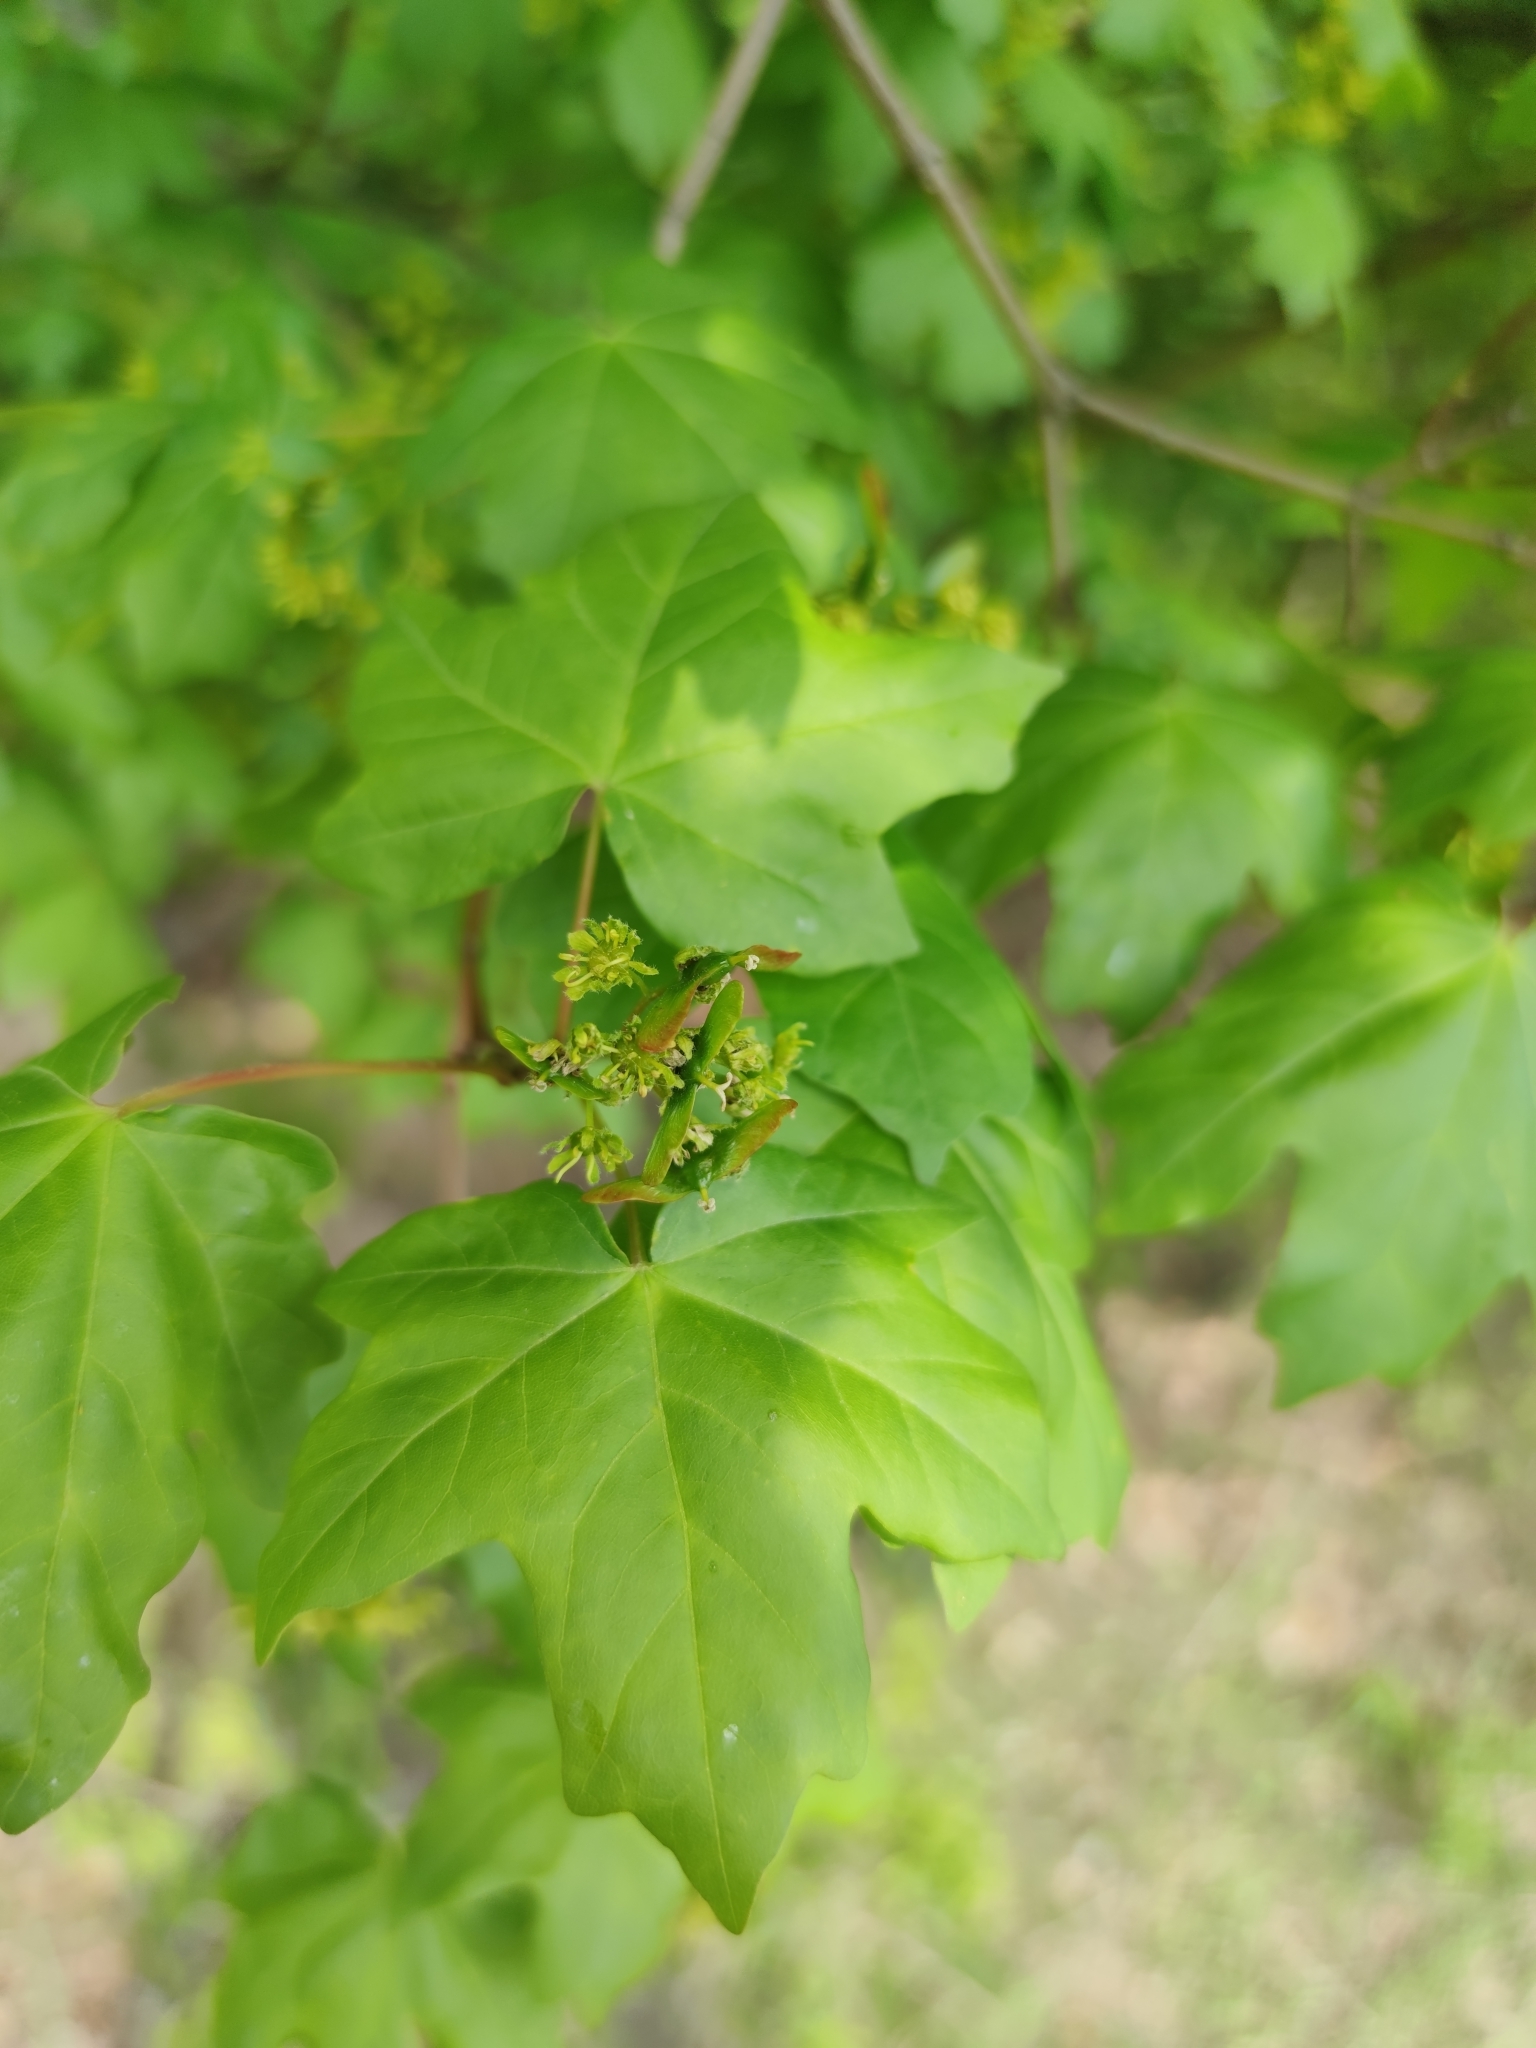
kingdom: Plantae
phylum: Tracheophyta
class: Magnoliopsida
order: Sapindales
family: Sapindaceae
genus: Acer
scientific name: Acer campestre
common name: Field maple
